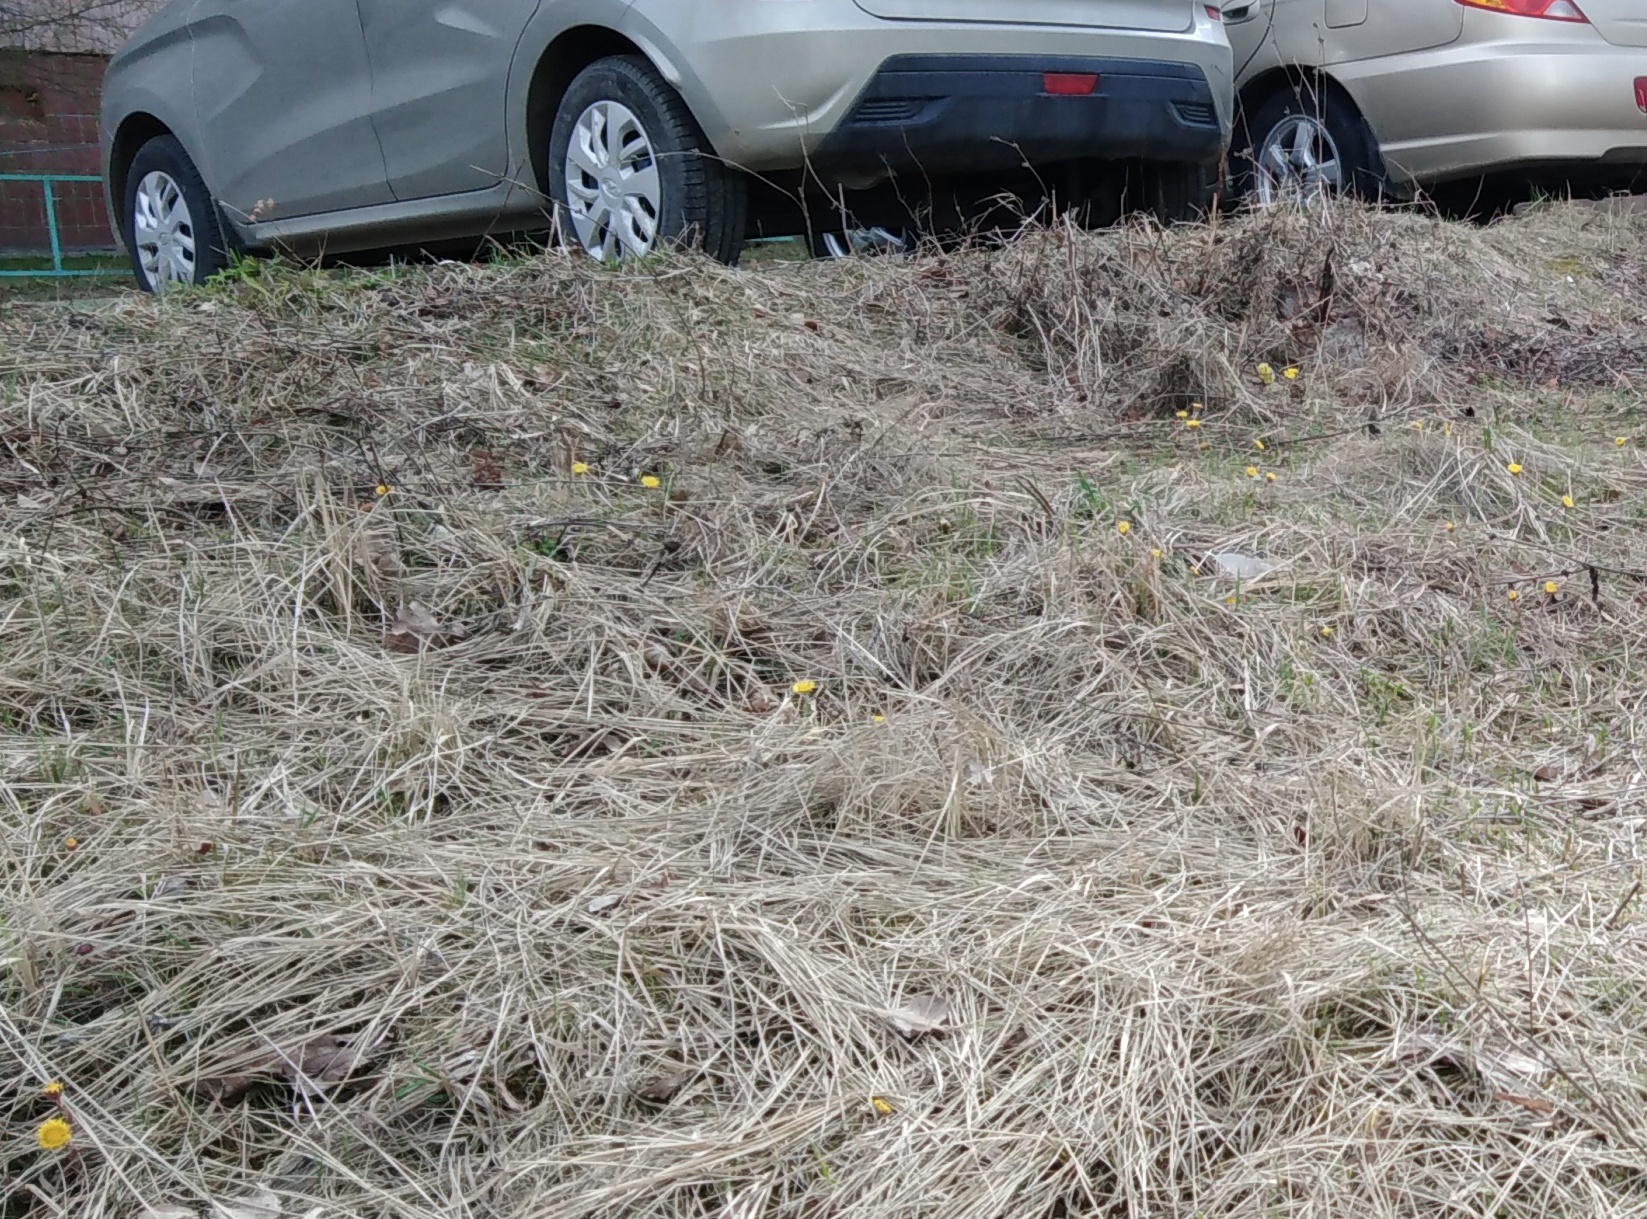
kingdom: Plantae
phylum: Tracheophyta
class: Magnoliopsida
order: Asterales
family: Asteraceae
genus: Tussilago
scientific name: Tussilago farfara
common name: Coltsfoot
